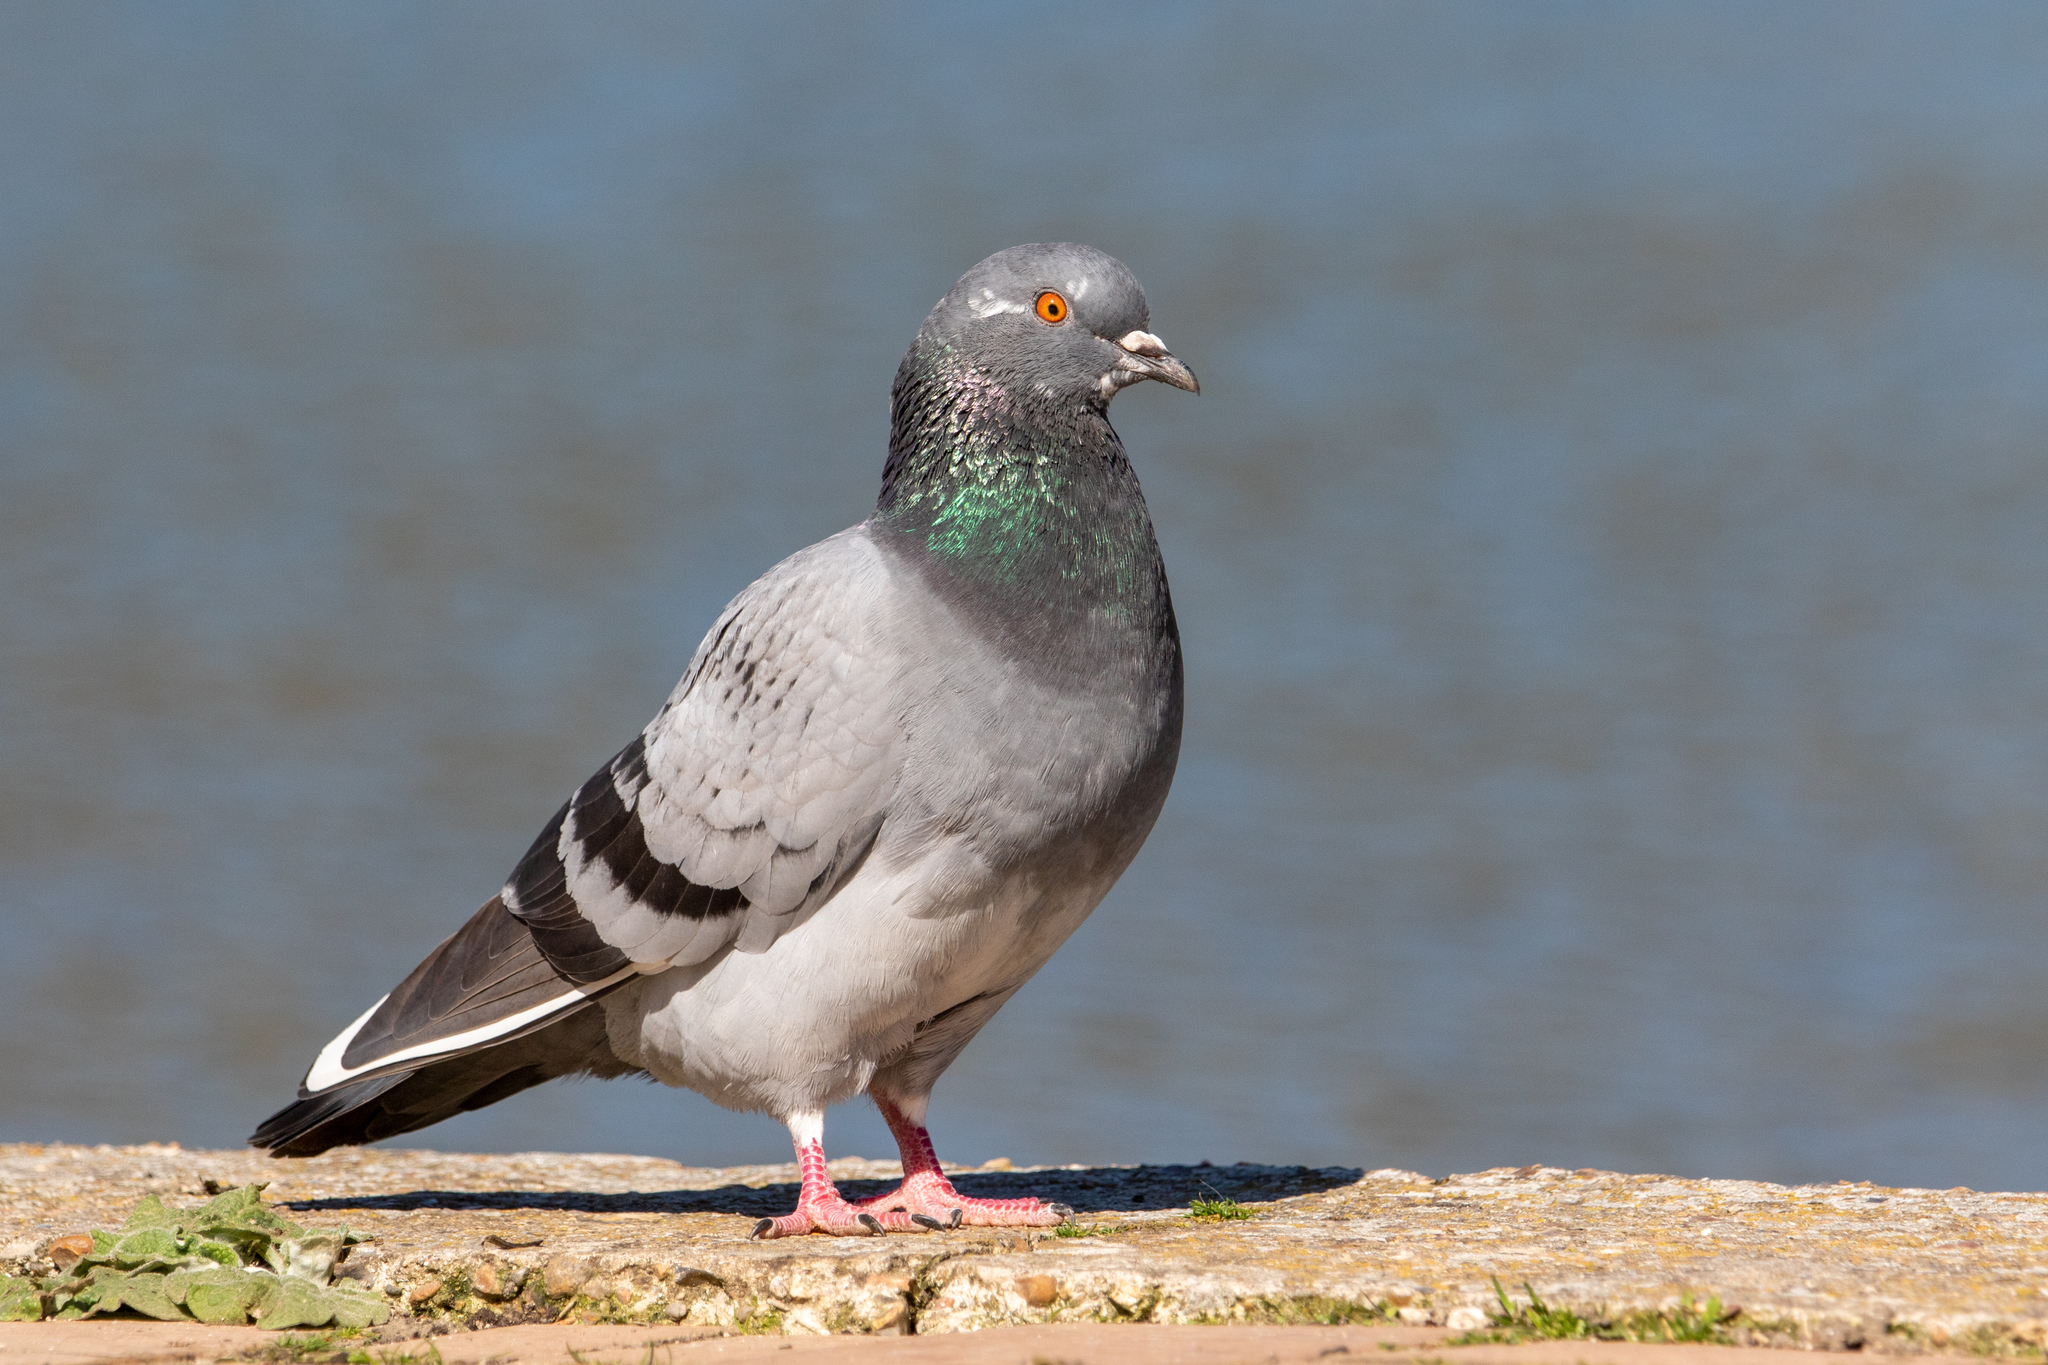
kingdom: Animalia
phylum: Chordata
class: Aves
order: Columbiformes
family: Columbidae
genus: Columba
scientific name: Columba livia
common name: Rock pigeon
